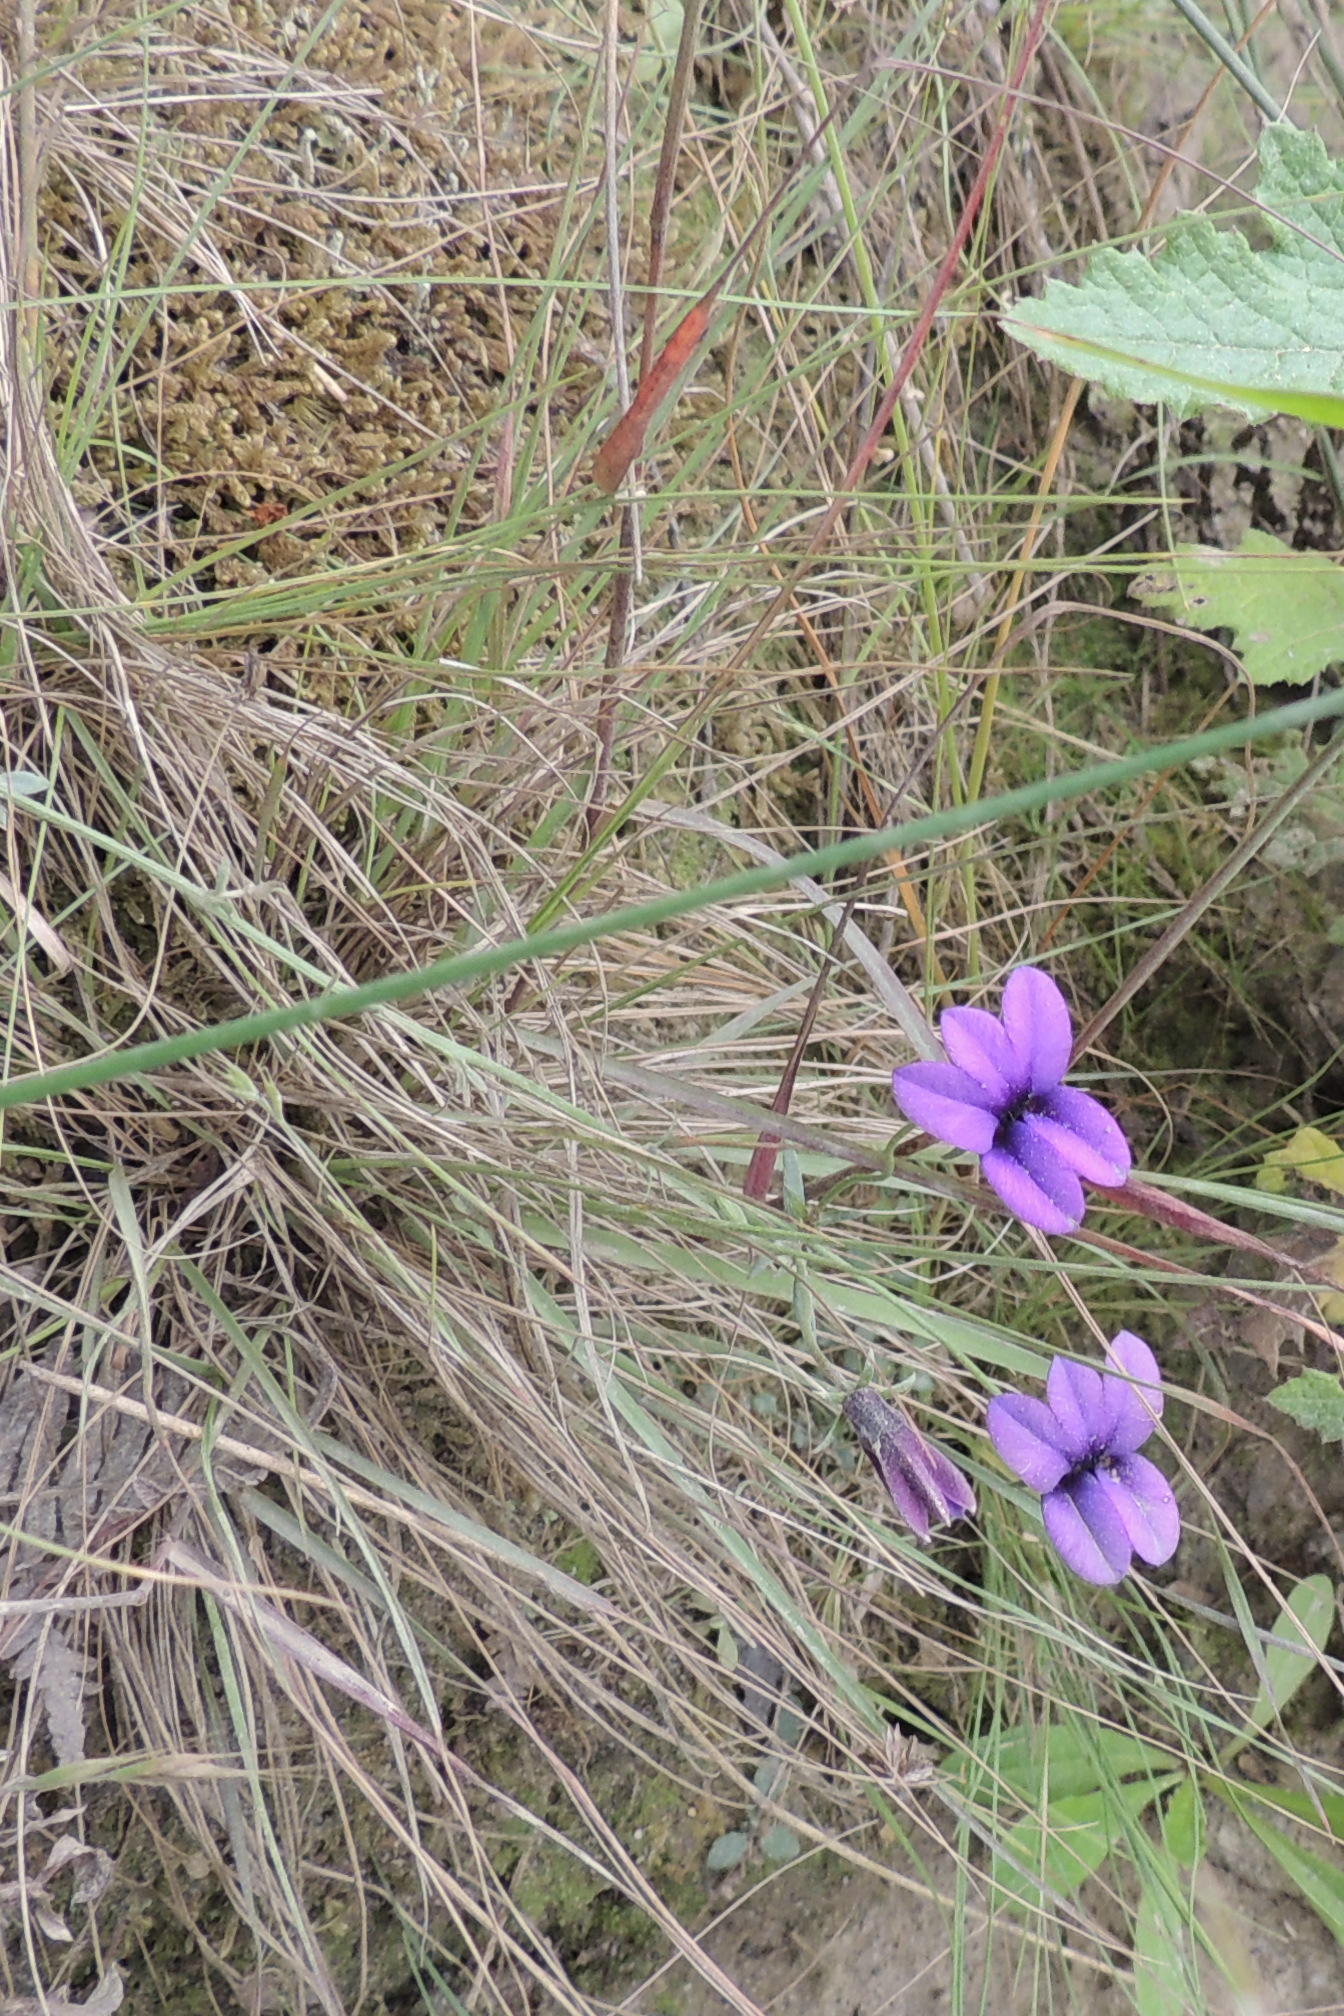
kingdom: Plantae
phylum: Tracheophyta
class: Magnoliopsida
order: Asterales
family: Campanulaceae
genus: Monopsis
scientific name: Monopsis simplex
